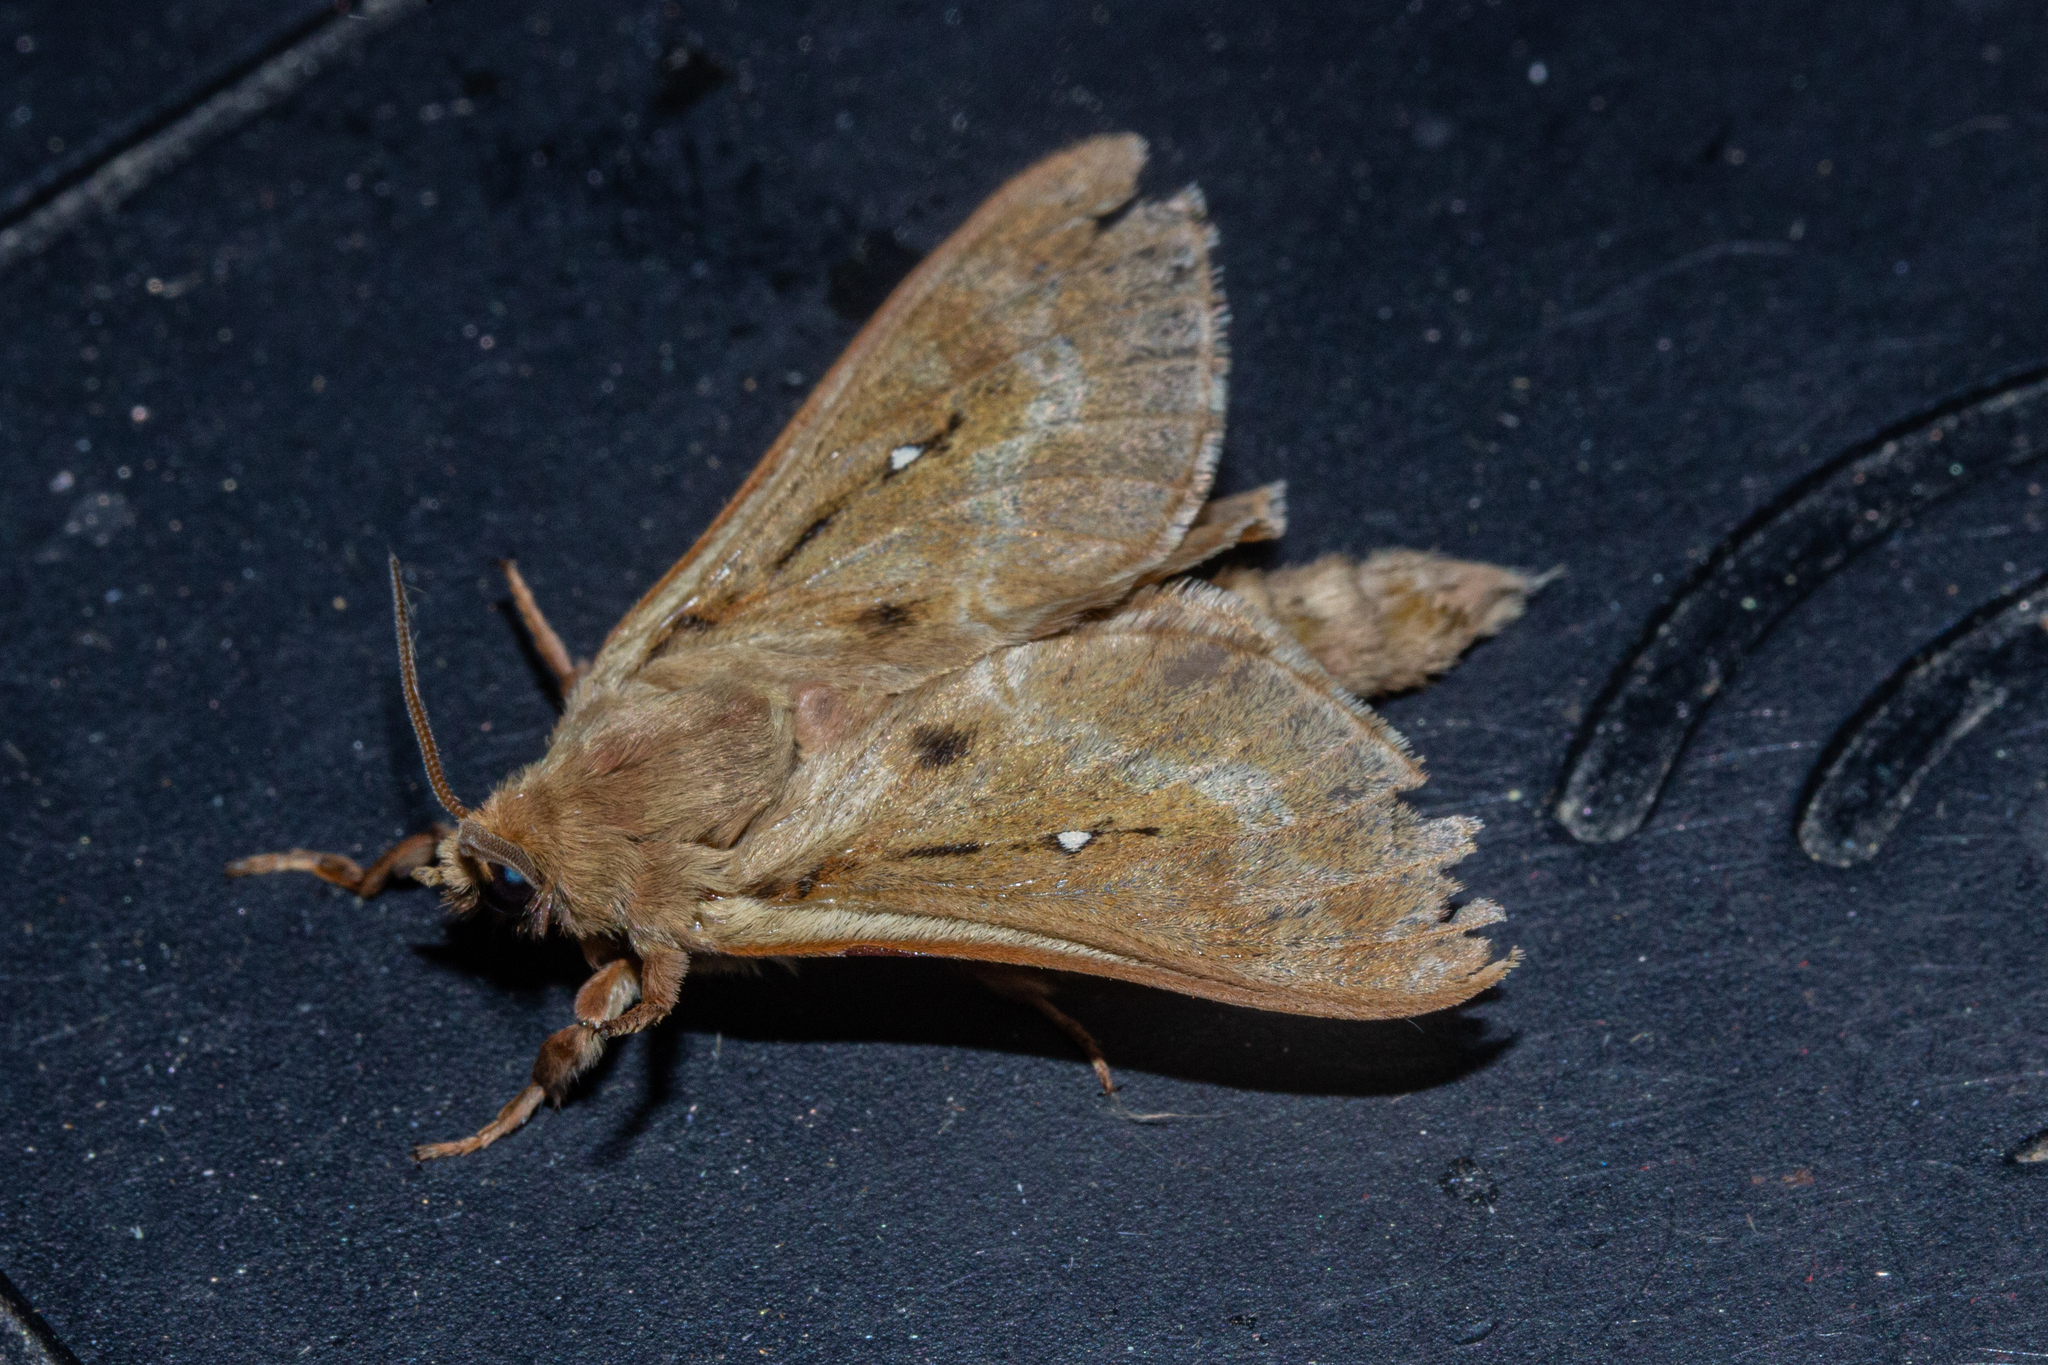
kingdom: Animalia
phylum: Arthropoda
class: Insecta
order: Lepidoptera
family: Hepialidae
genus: Wiseana
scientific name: Wiseana copularis
